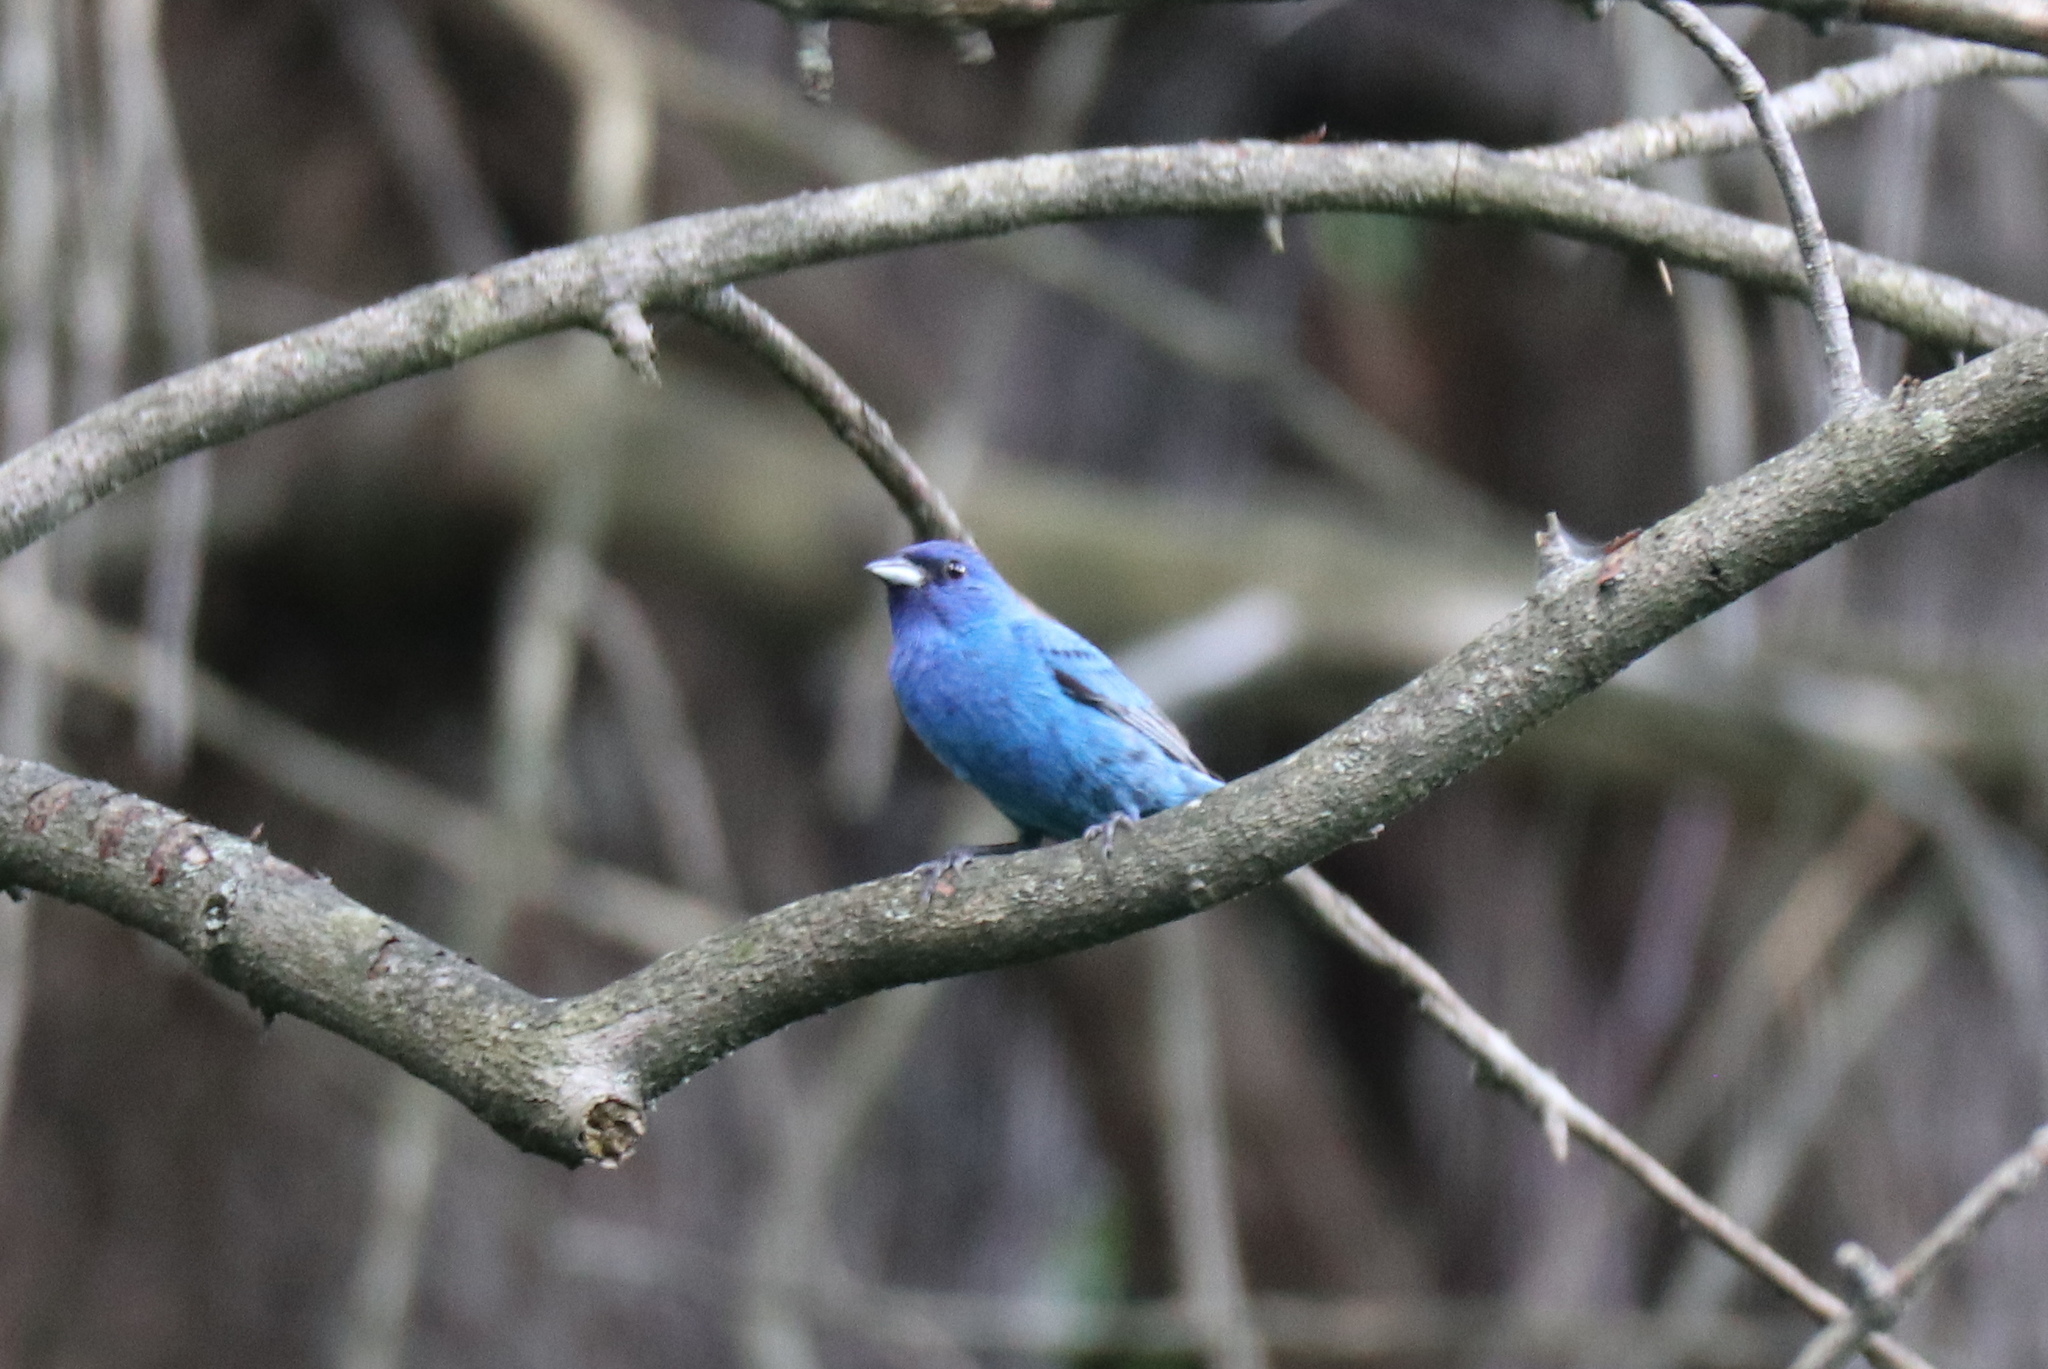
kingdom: Animalia
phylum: Chordata
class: Aves
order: Passeriformes
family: Cardinalidae
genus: Passerina
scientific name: Passerina cyanea
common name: Indigo bunting
